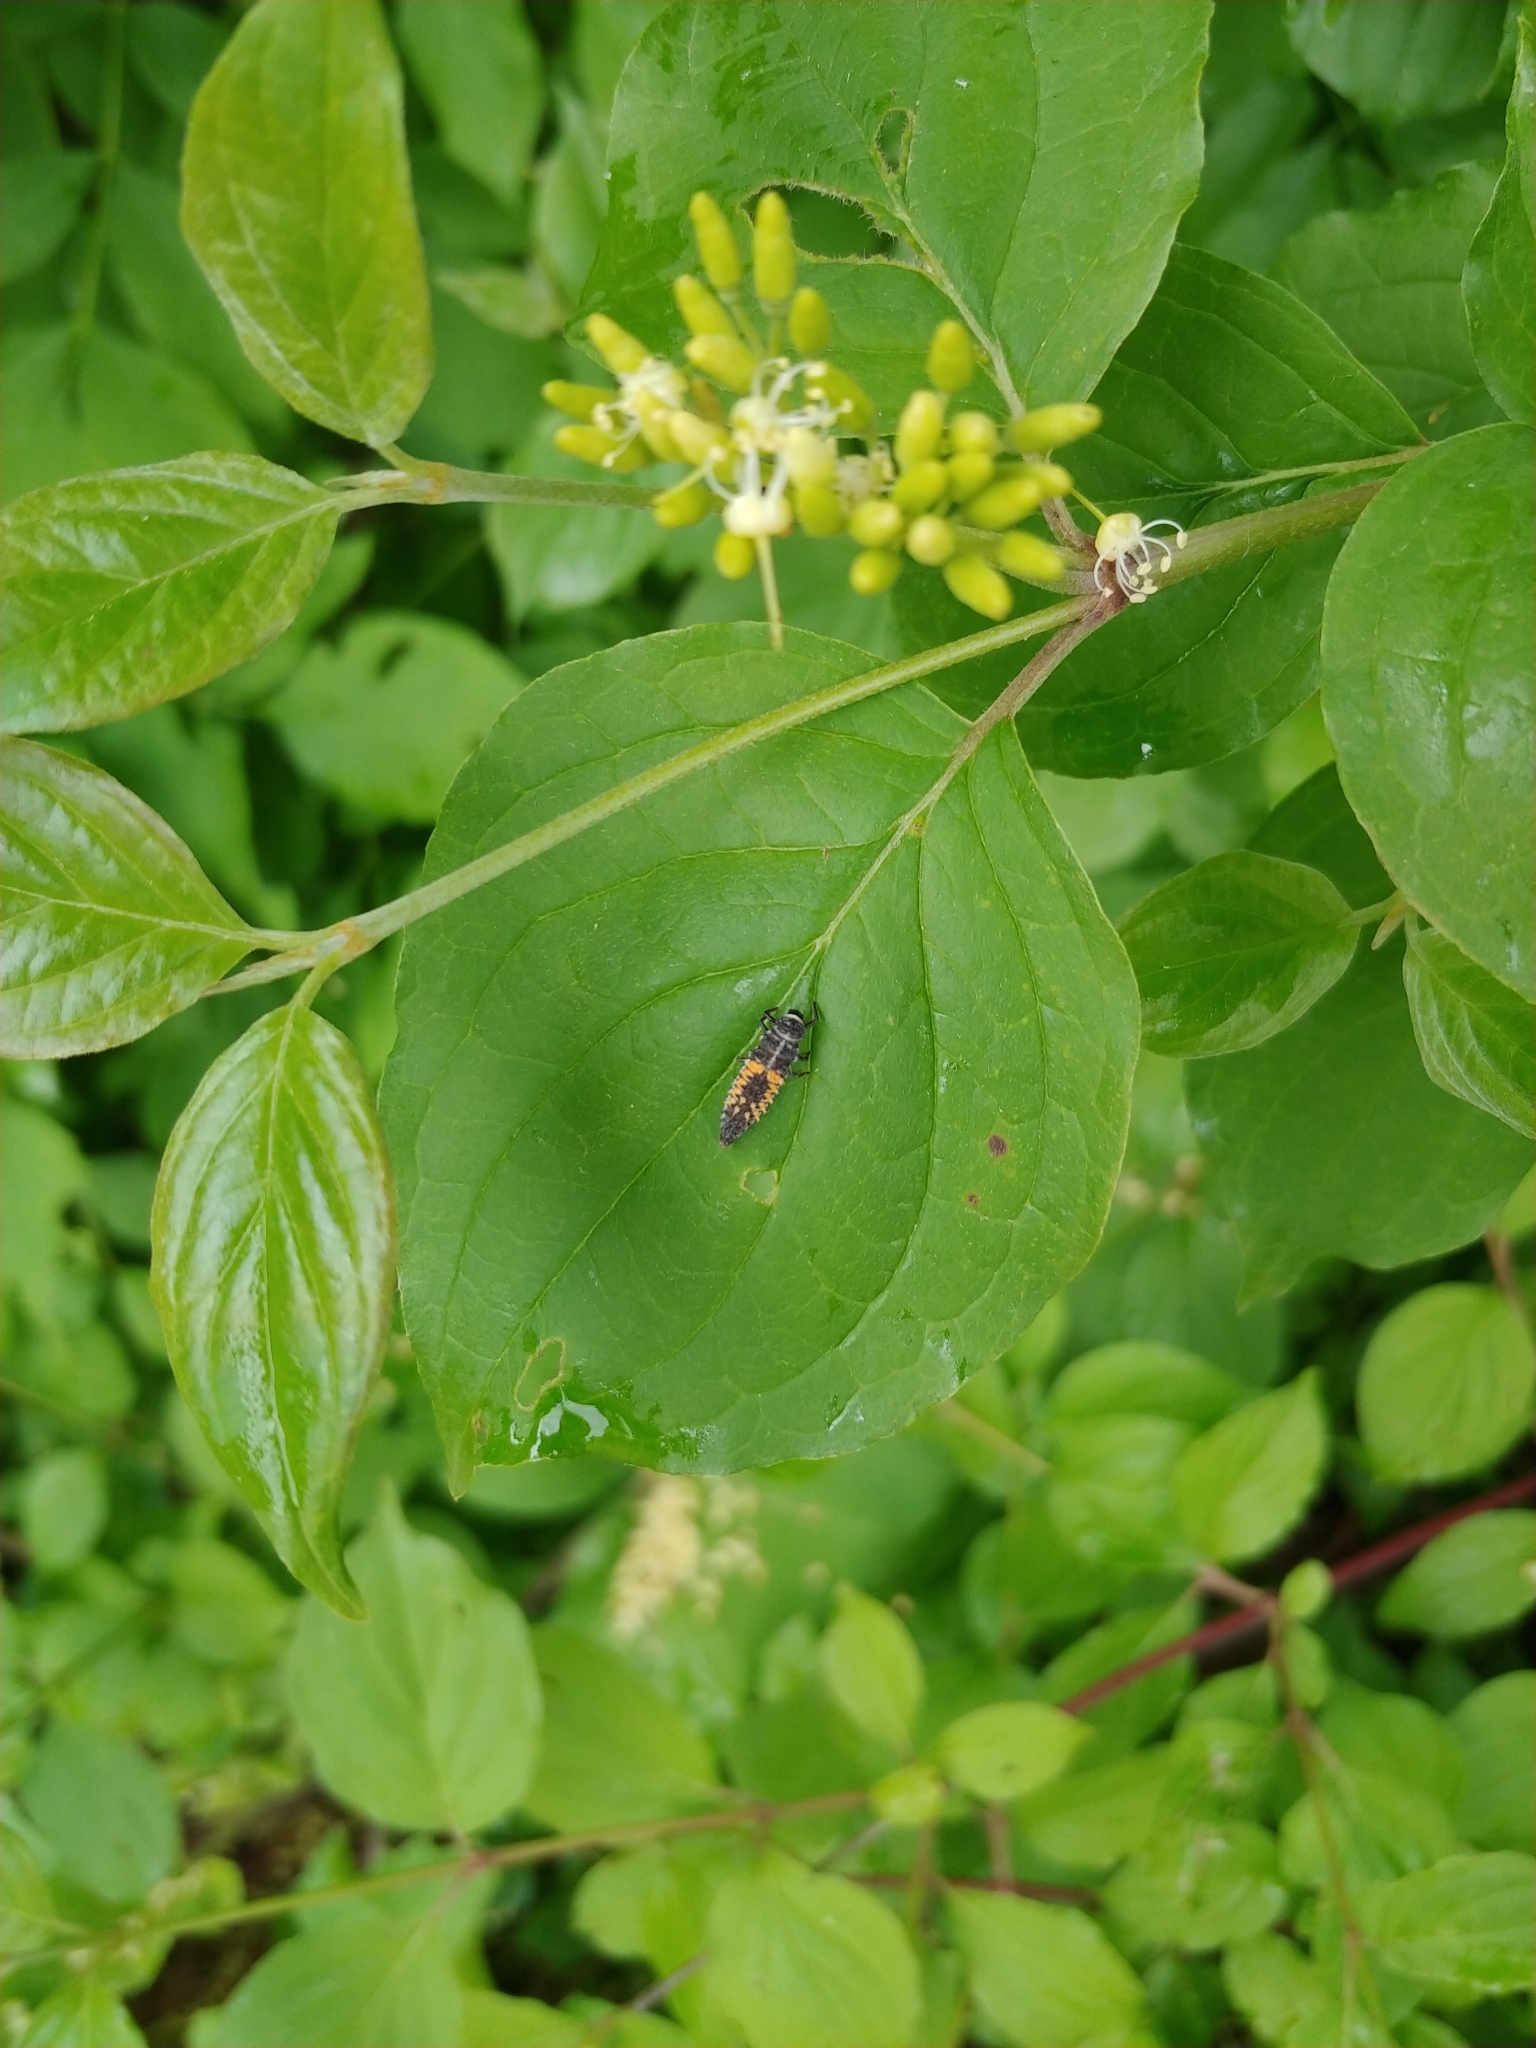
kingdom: Animalia
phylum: Arthropoda
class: Insecta
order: Coleoptera
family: Coccinellidae
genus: Harmonia
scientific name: Harmonia axyridis
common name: Harlequin ladybird
